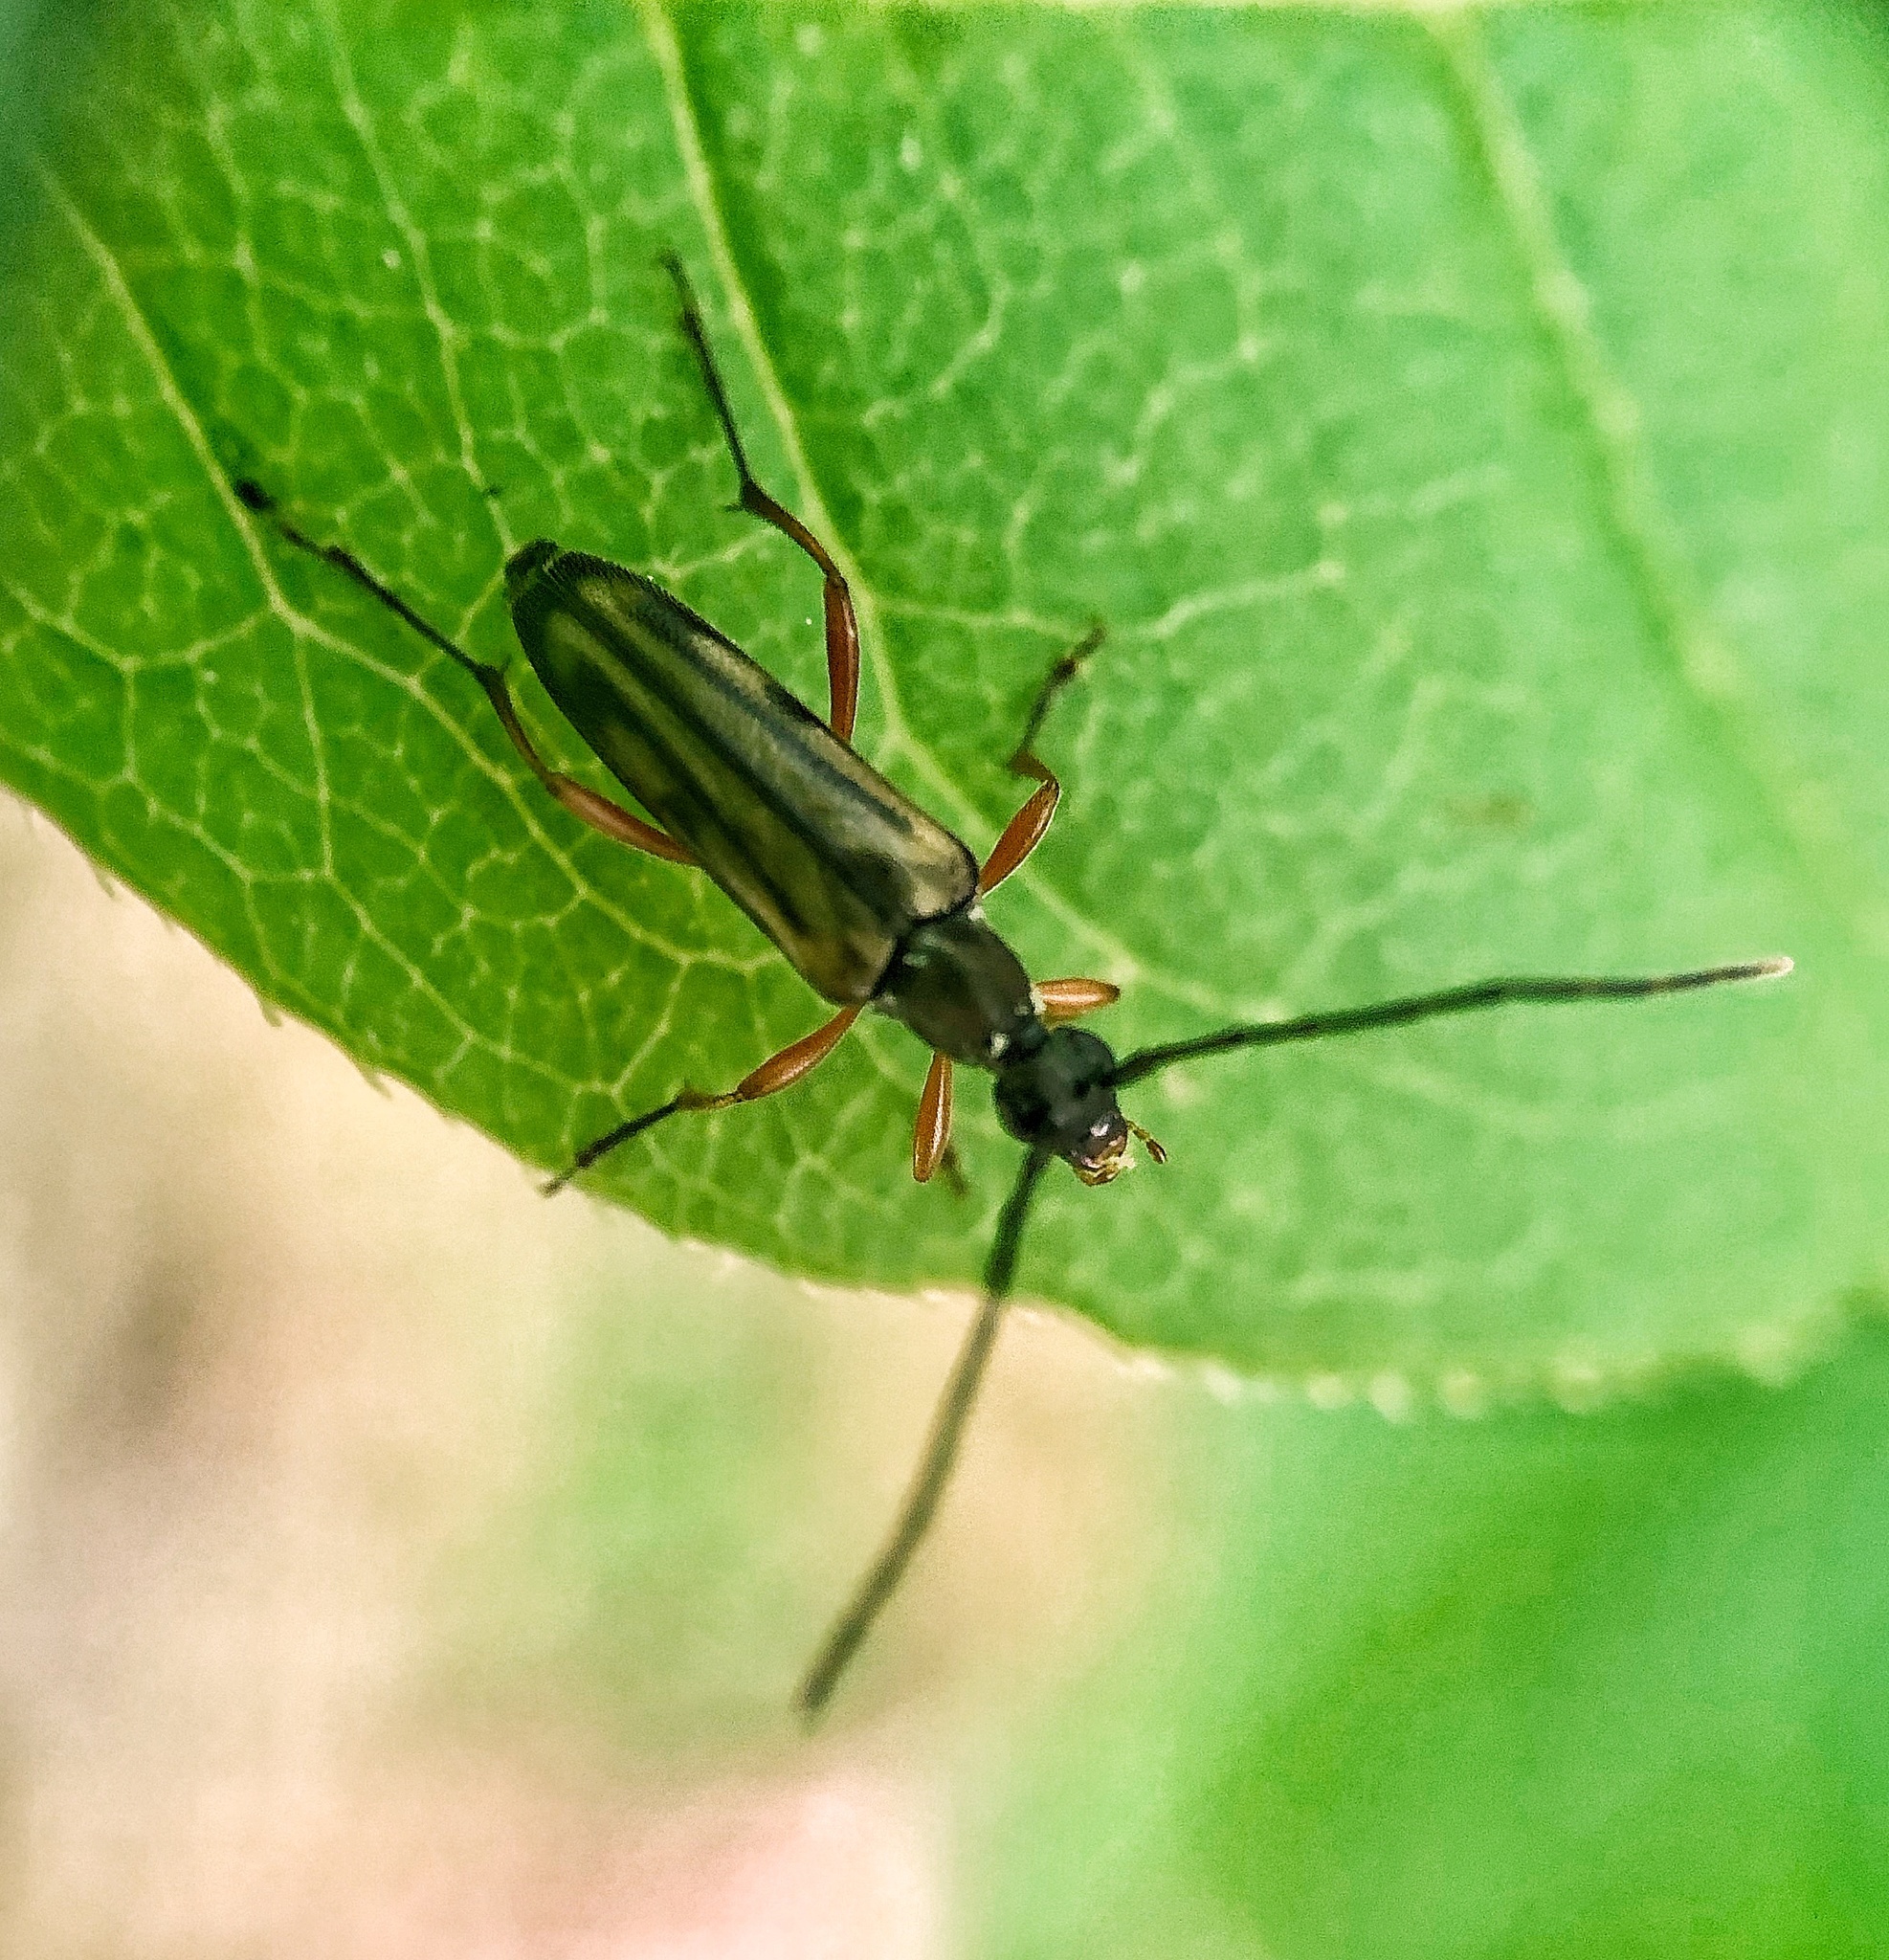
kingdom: Animalia
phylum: Arthropoda
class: Insecta
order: Coleoptera
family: Cerambycidae
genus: Analeptura
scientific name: Analeptura lineola
